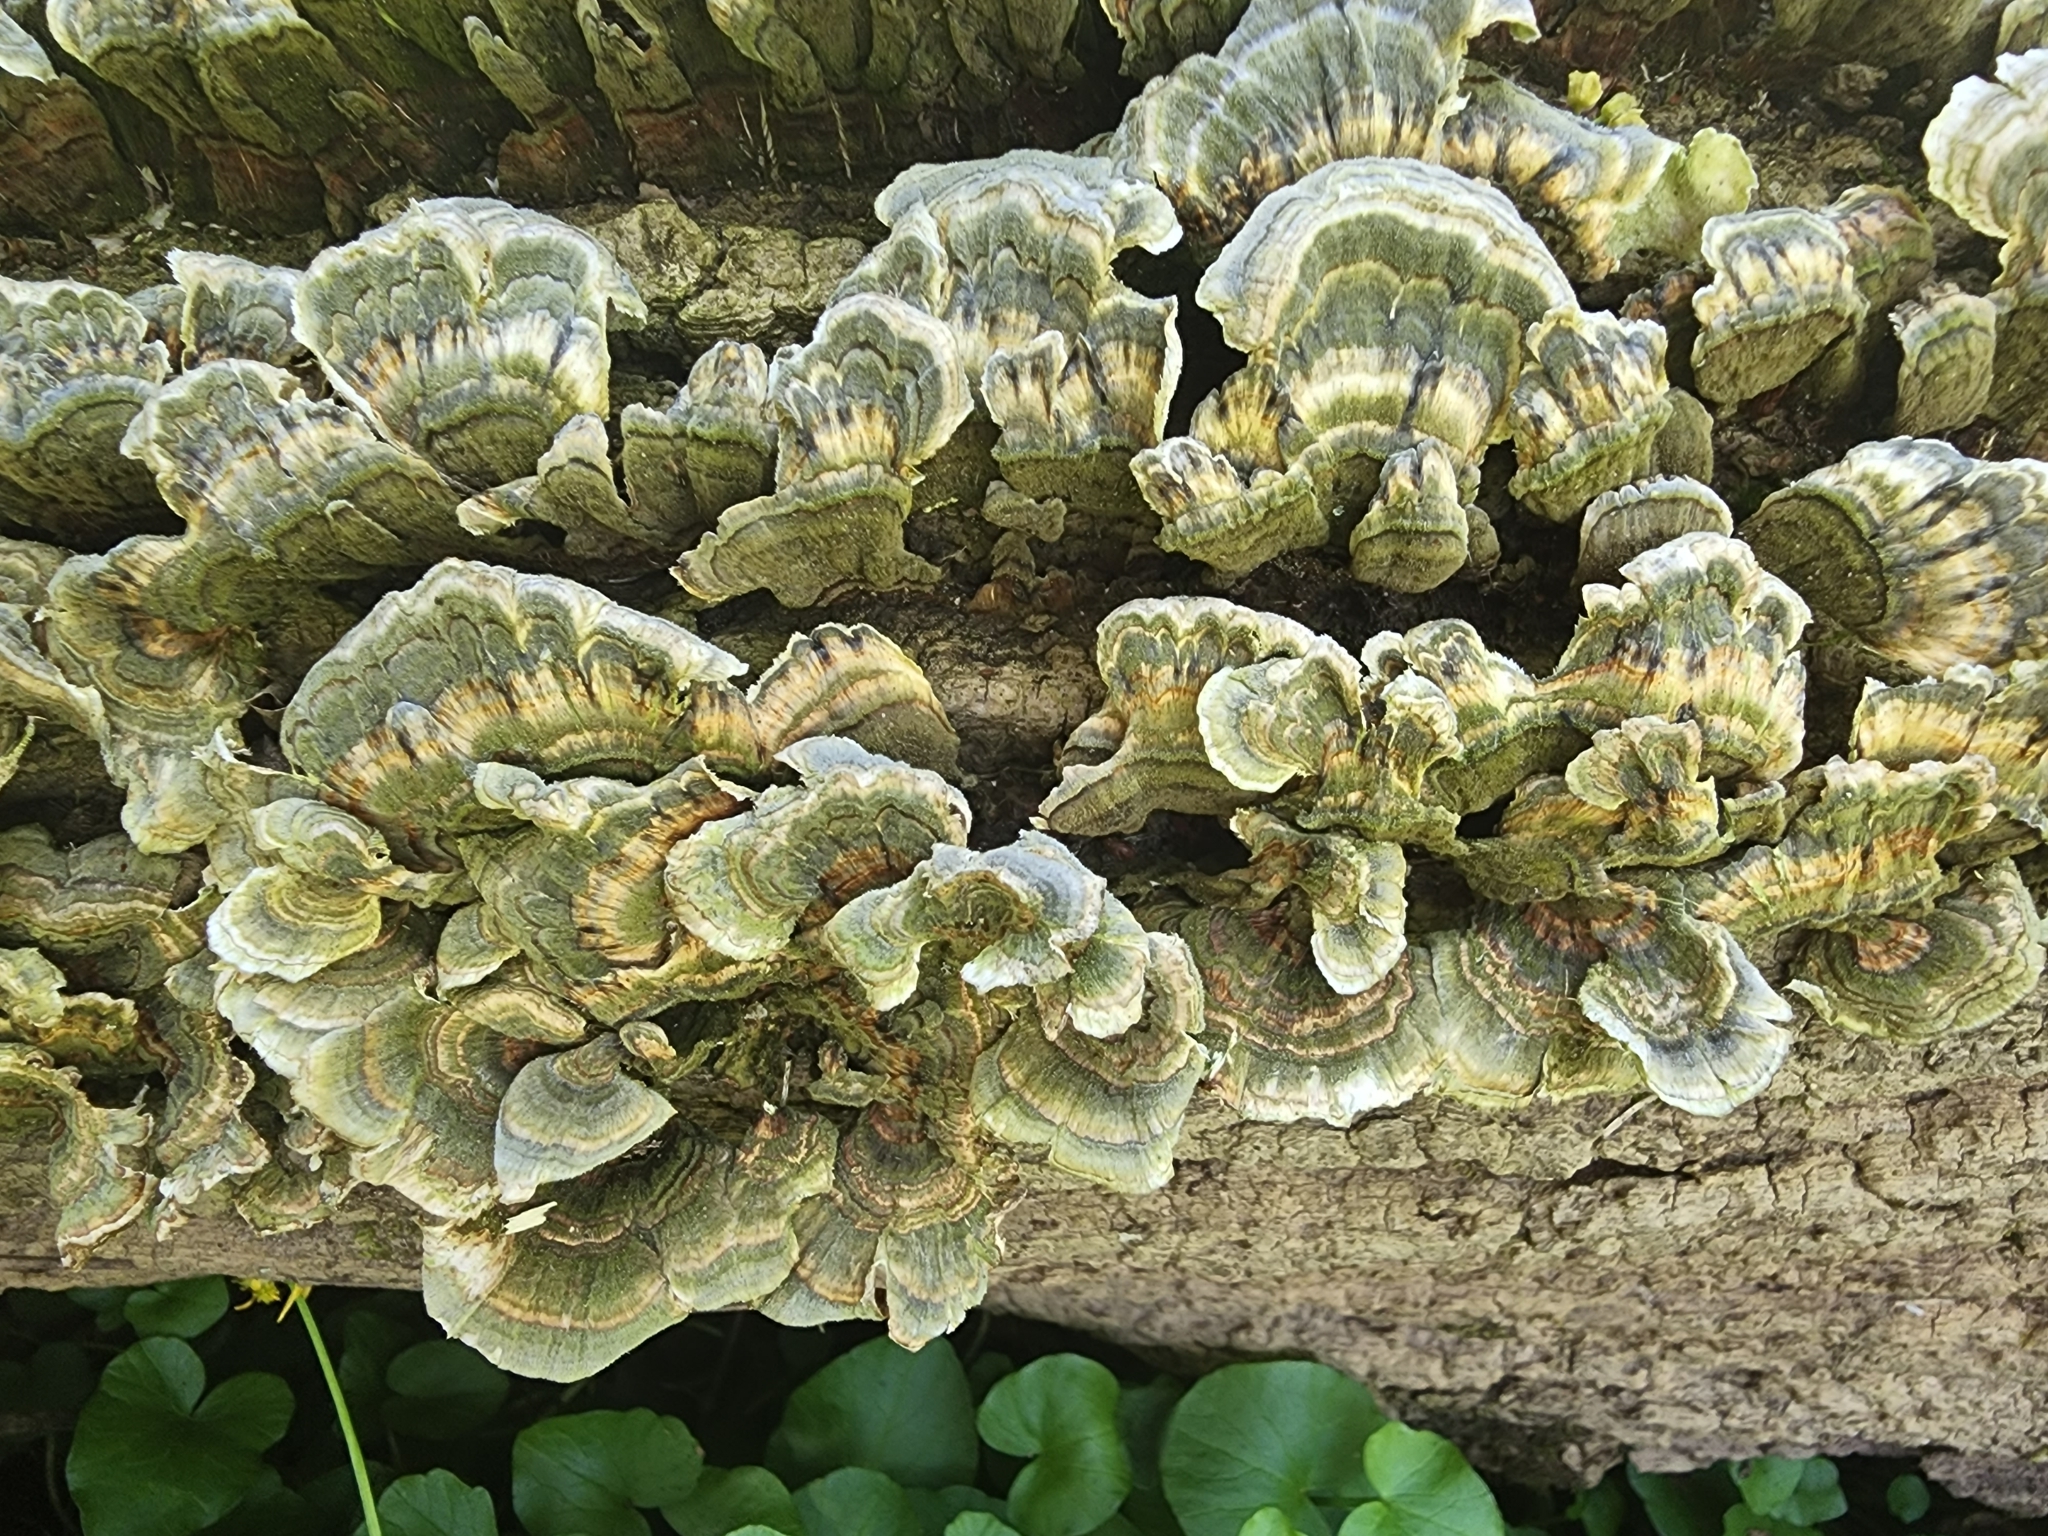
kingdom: Fungi
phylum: Basidiomycota
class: Agaricomycetes
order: Polyporales
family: Polyporaceae
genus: Trametes
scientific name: Trametes versicolor
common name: Turkeytail
